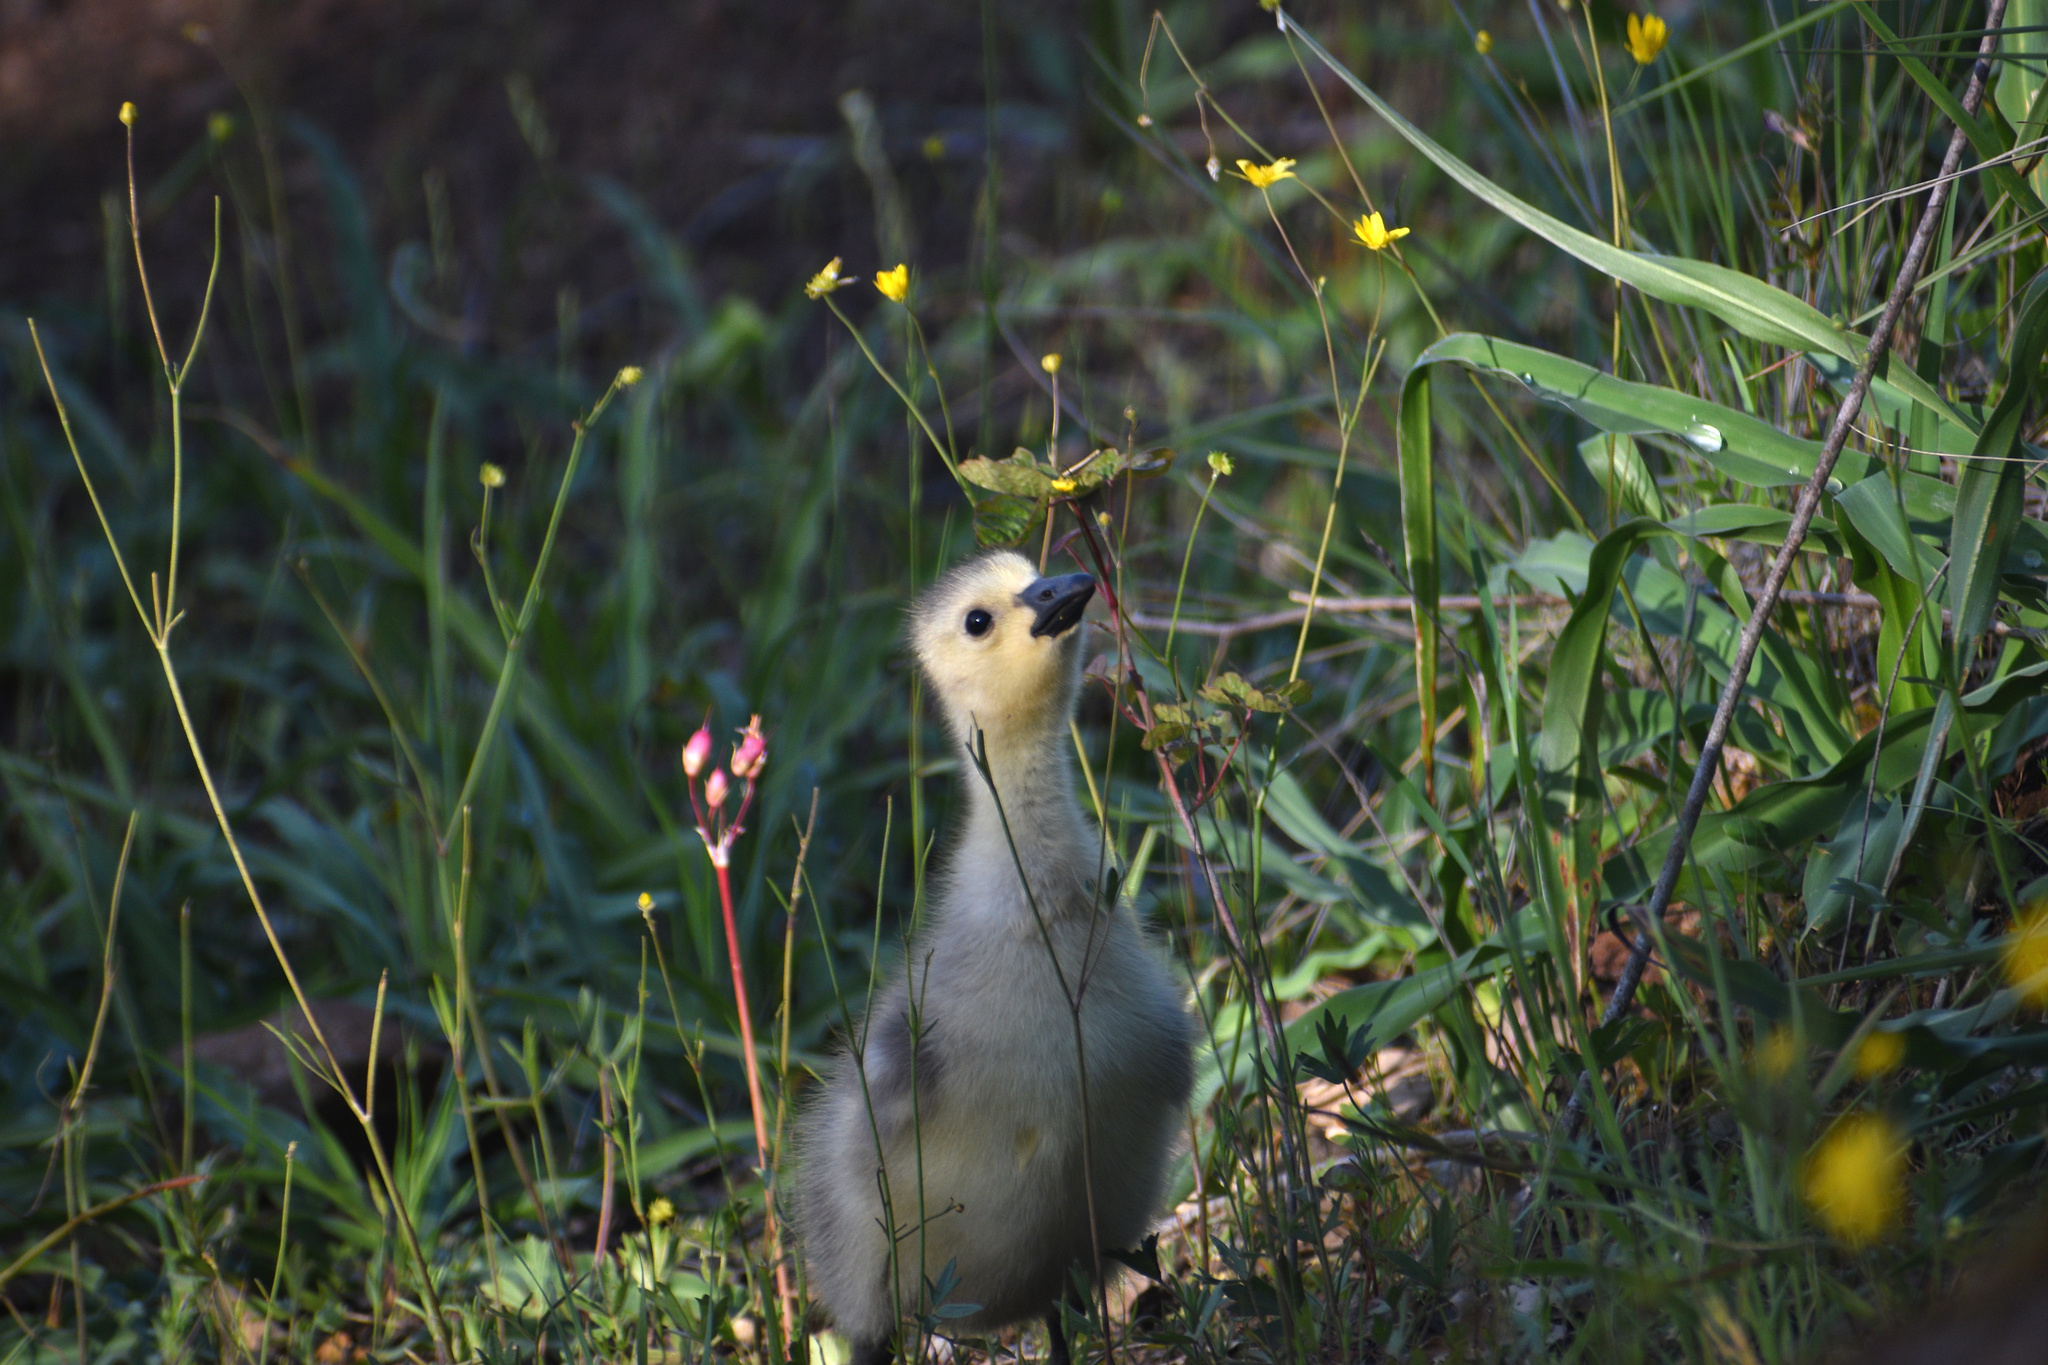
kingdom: Animalia
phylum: Chordata
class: Aves
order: Anseriformes
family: Anatidae
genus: Branta
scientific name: Branta canadensis
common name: Canada goose
